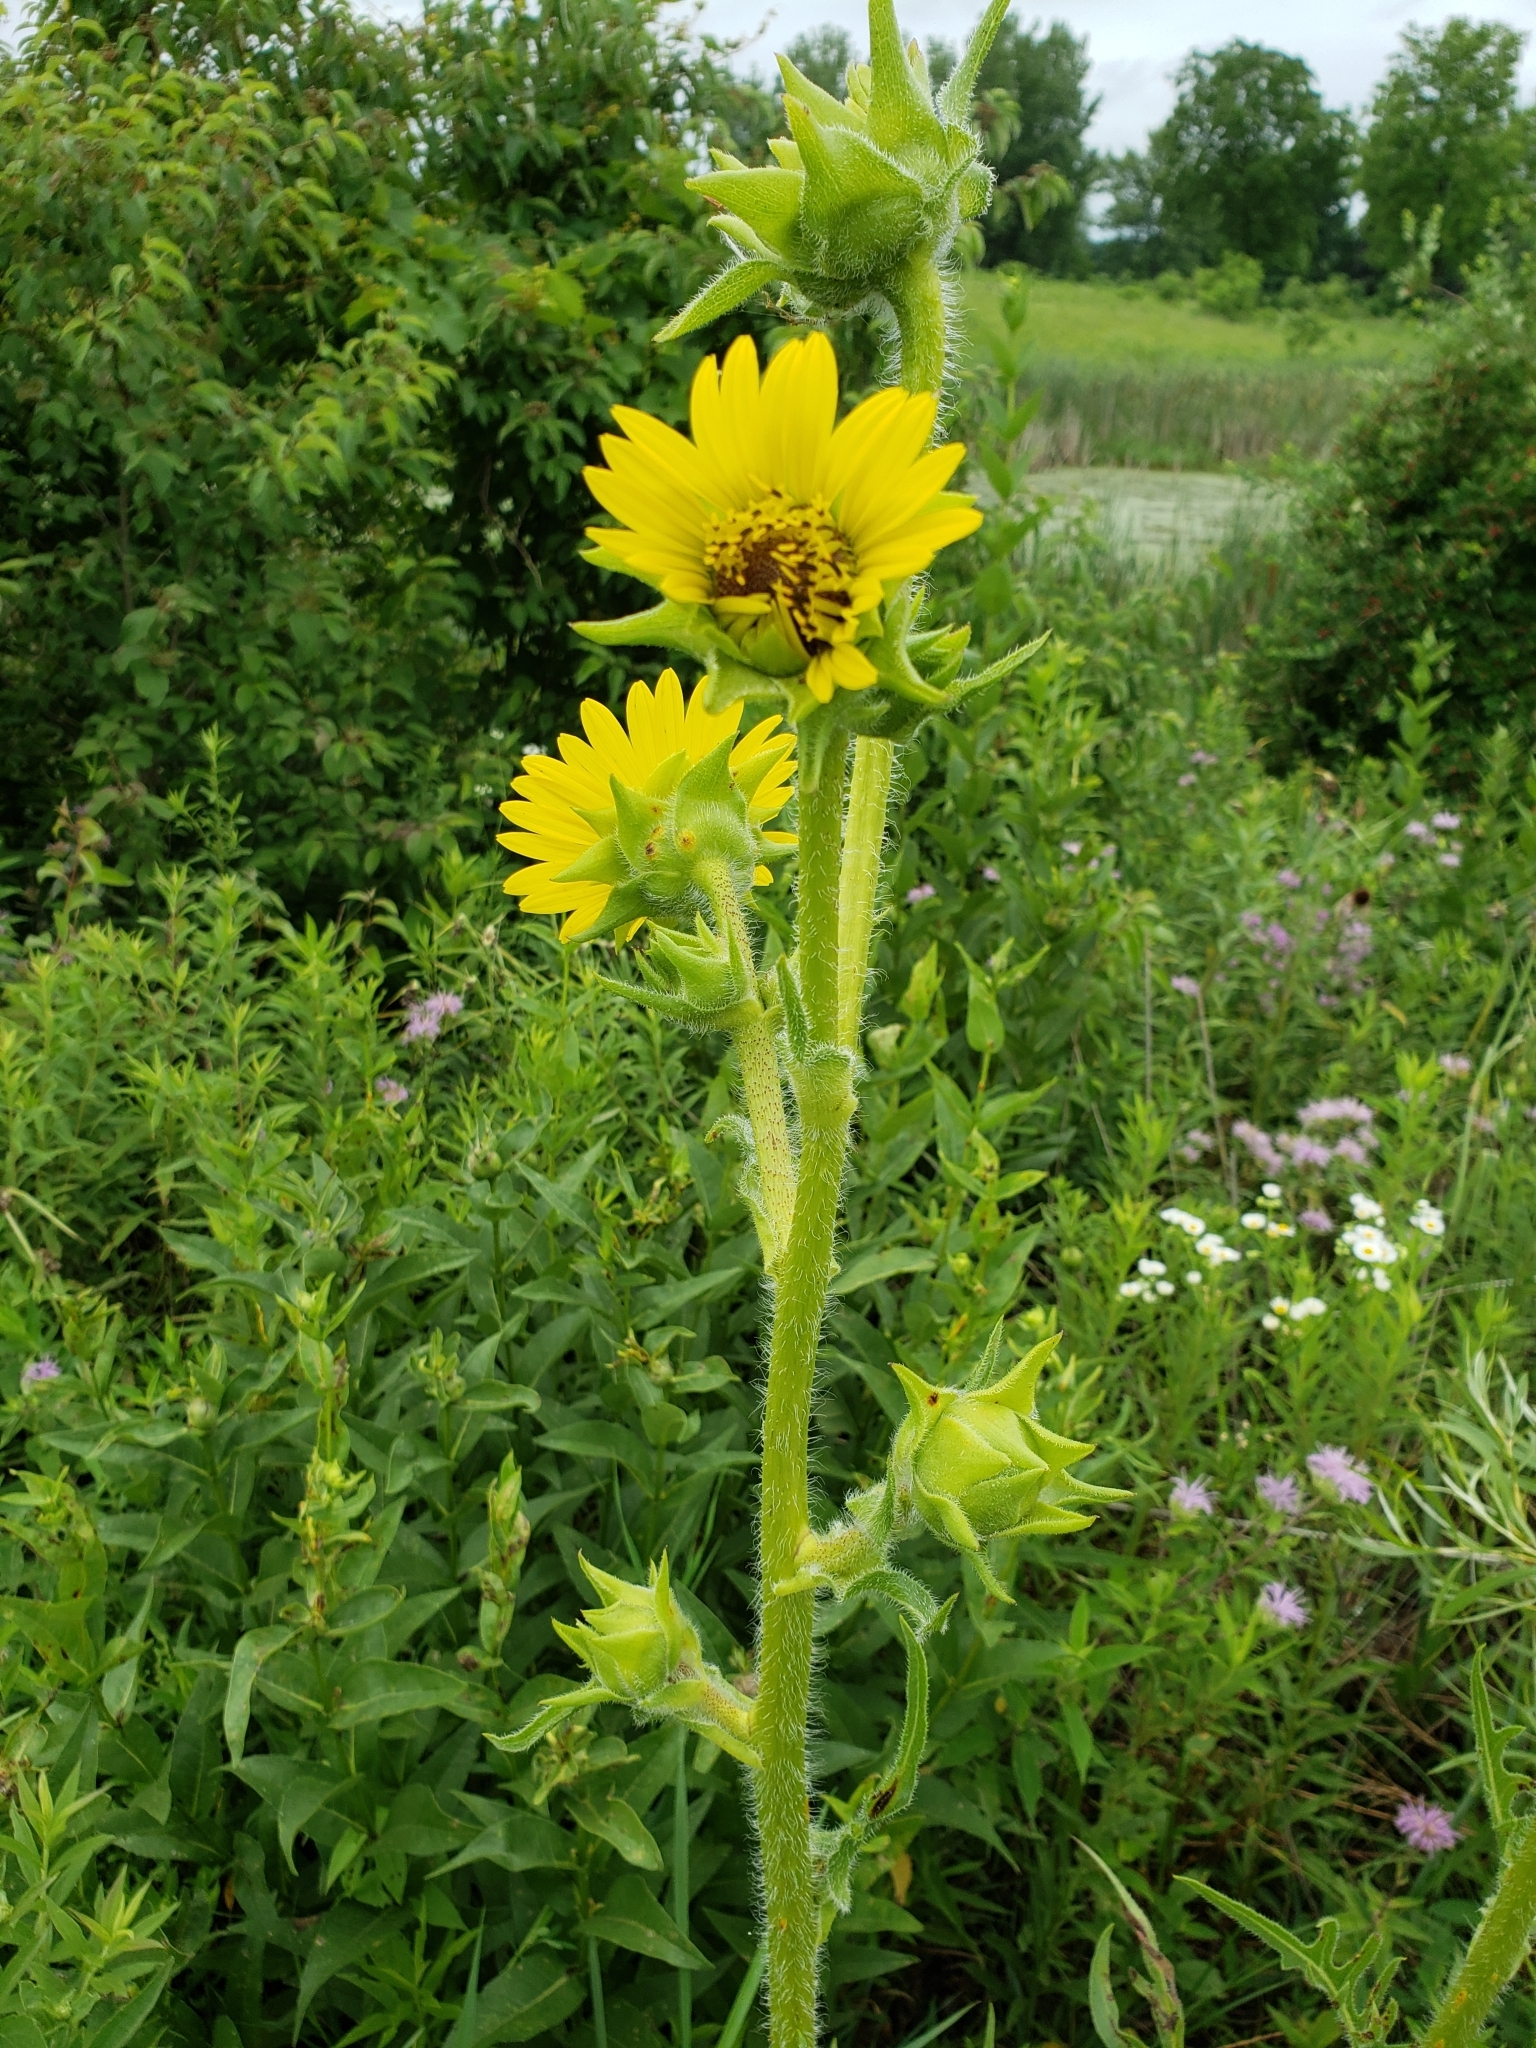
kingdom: Plantae
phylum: Tracheophyta
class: Magnoliopsida
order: Asterales
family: Asteraceae
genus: Silphium
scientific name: Silphium laciniatum
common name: Polarplant
